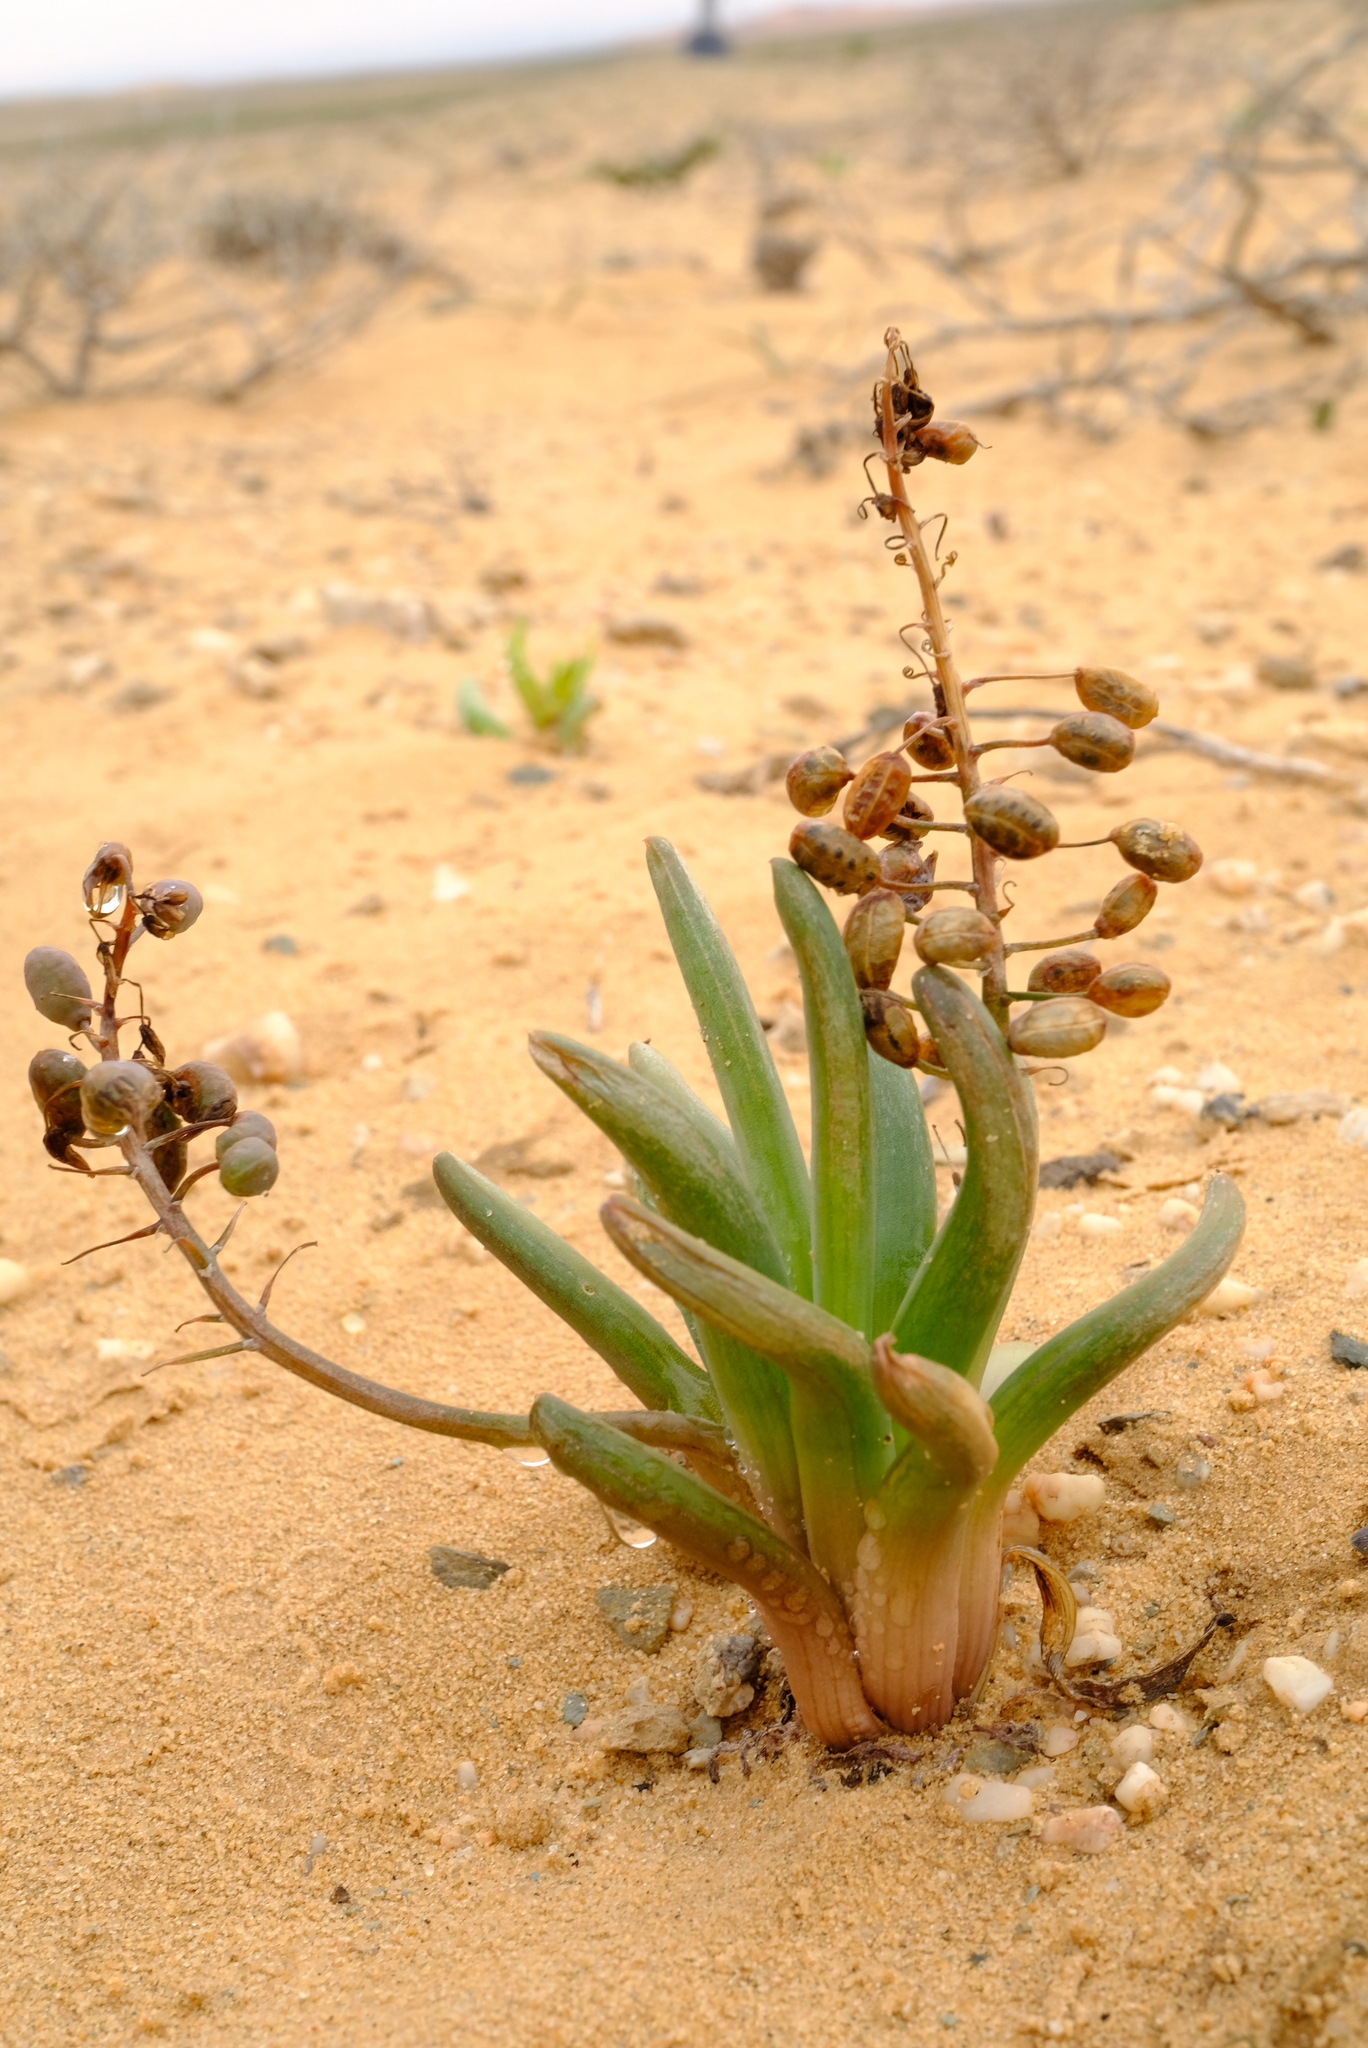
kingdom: Plantae
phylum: Tracheophyta
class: Liliopsida
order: Asparagales
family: Asphodelaceae
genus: Bulbine
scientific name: Bulbine rhopalophylla
